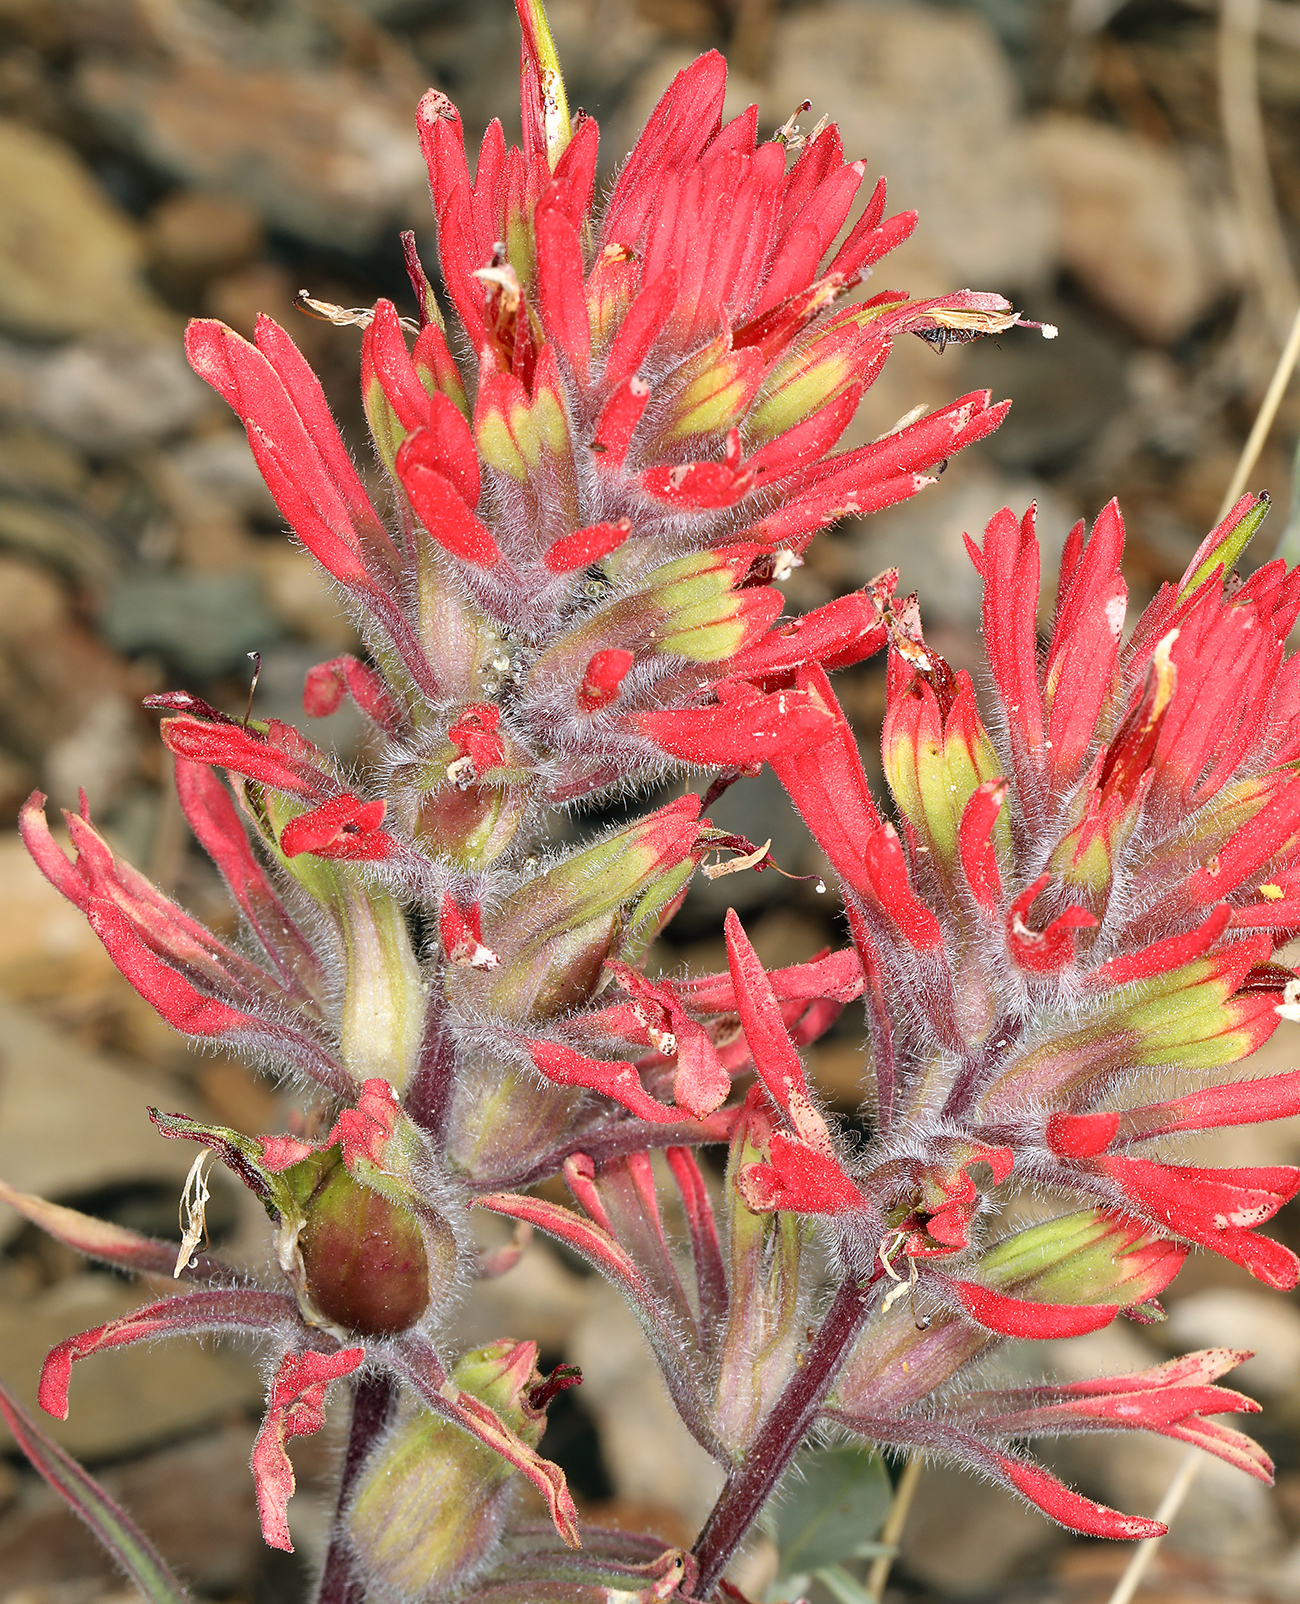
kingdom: Plantae
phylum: Tracheophyta
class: Magnoliopsida
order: Lamiales
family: Orobanchaceae
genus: Castilleja
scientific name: Castilleja chromosa
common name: Desert paintbrush
